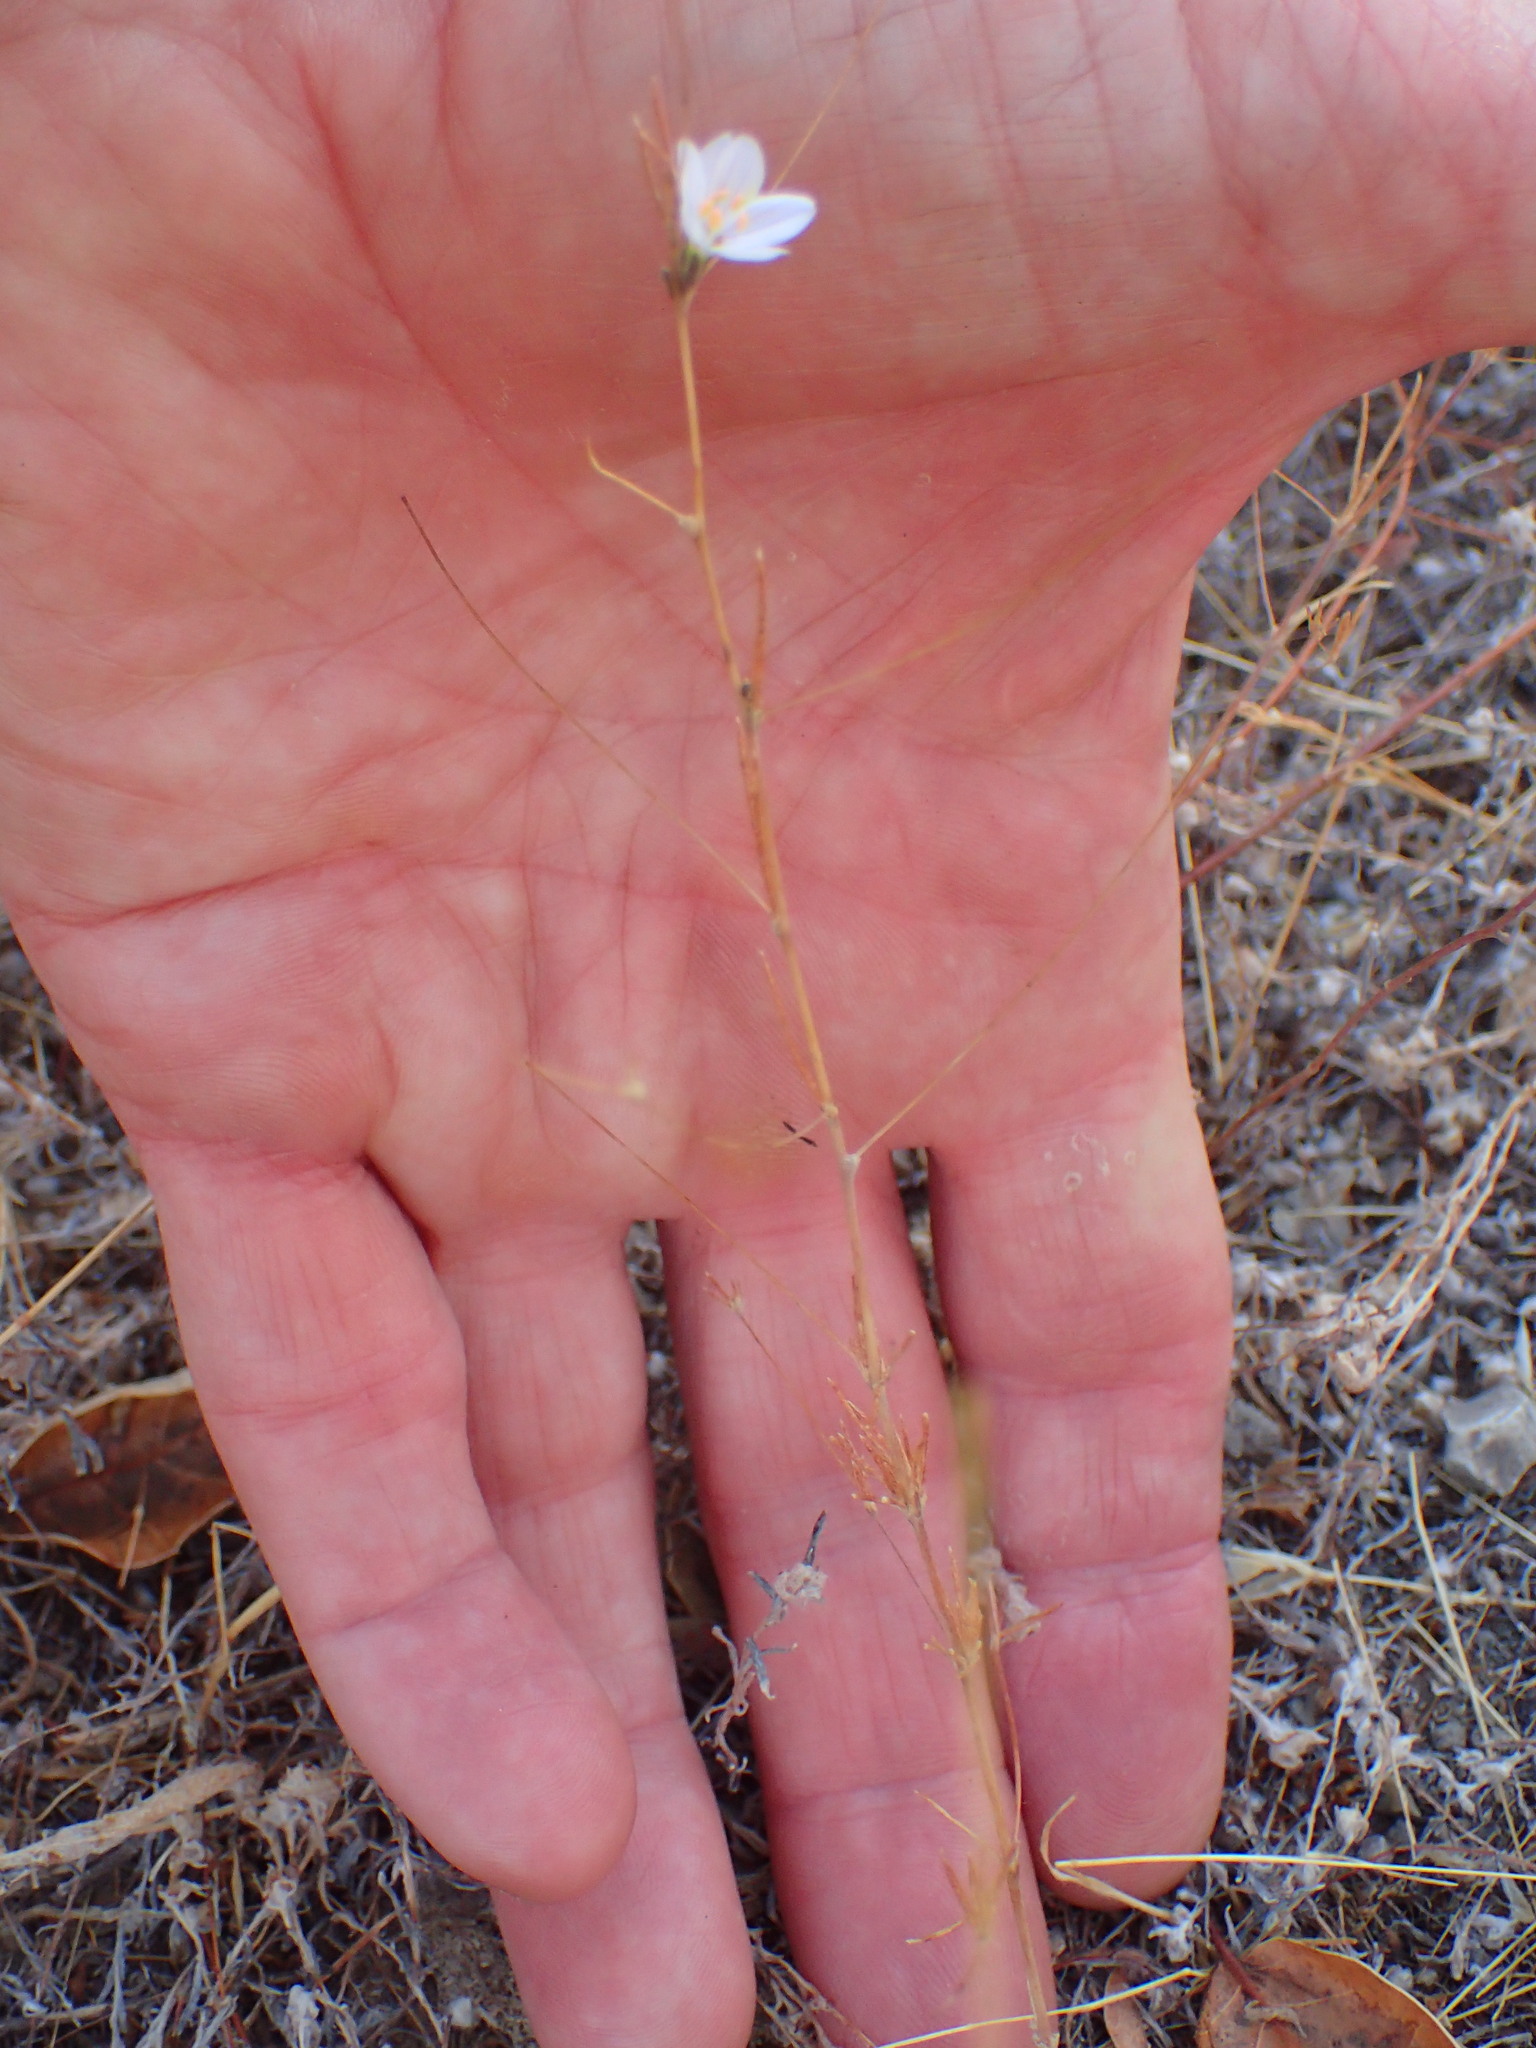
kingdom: Plantae
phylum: Tracheophyta
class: Magnoliopsida
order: Ericales
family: Polemoniaceae
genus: Leptosiphon
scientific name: Leptosiphon liniflorus
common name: Narrowflower flaxflower
